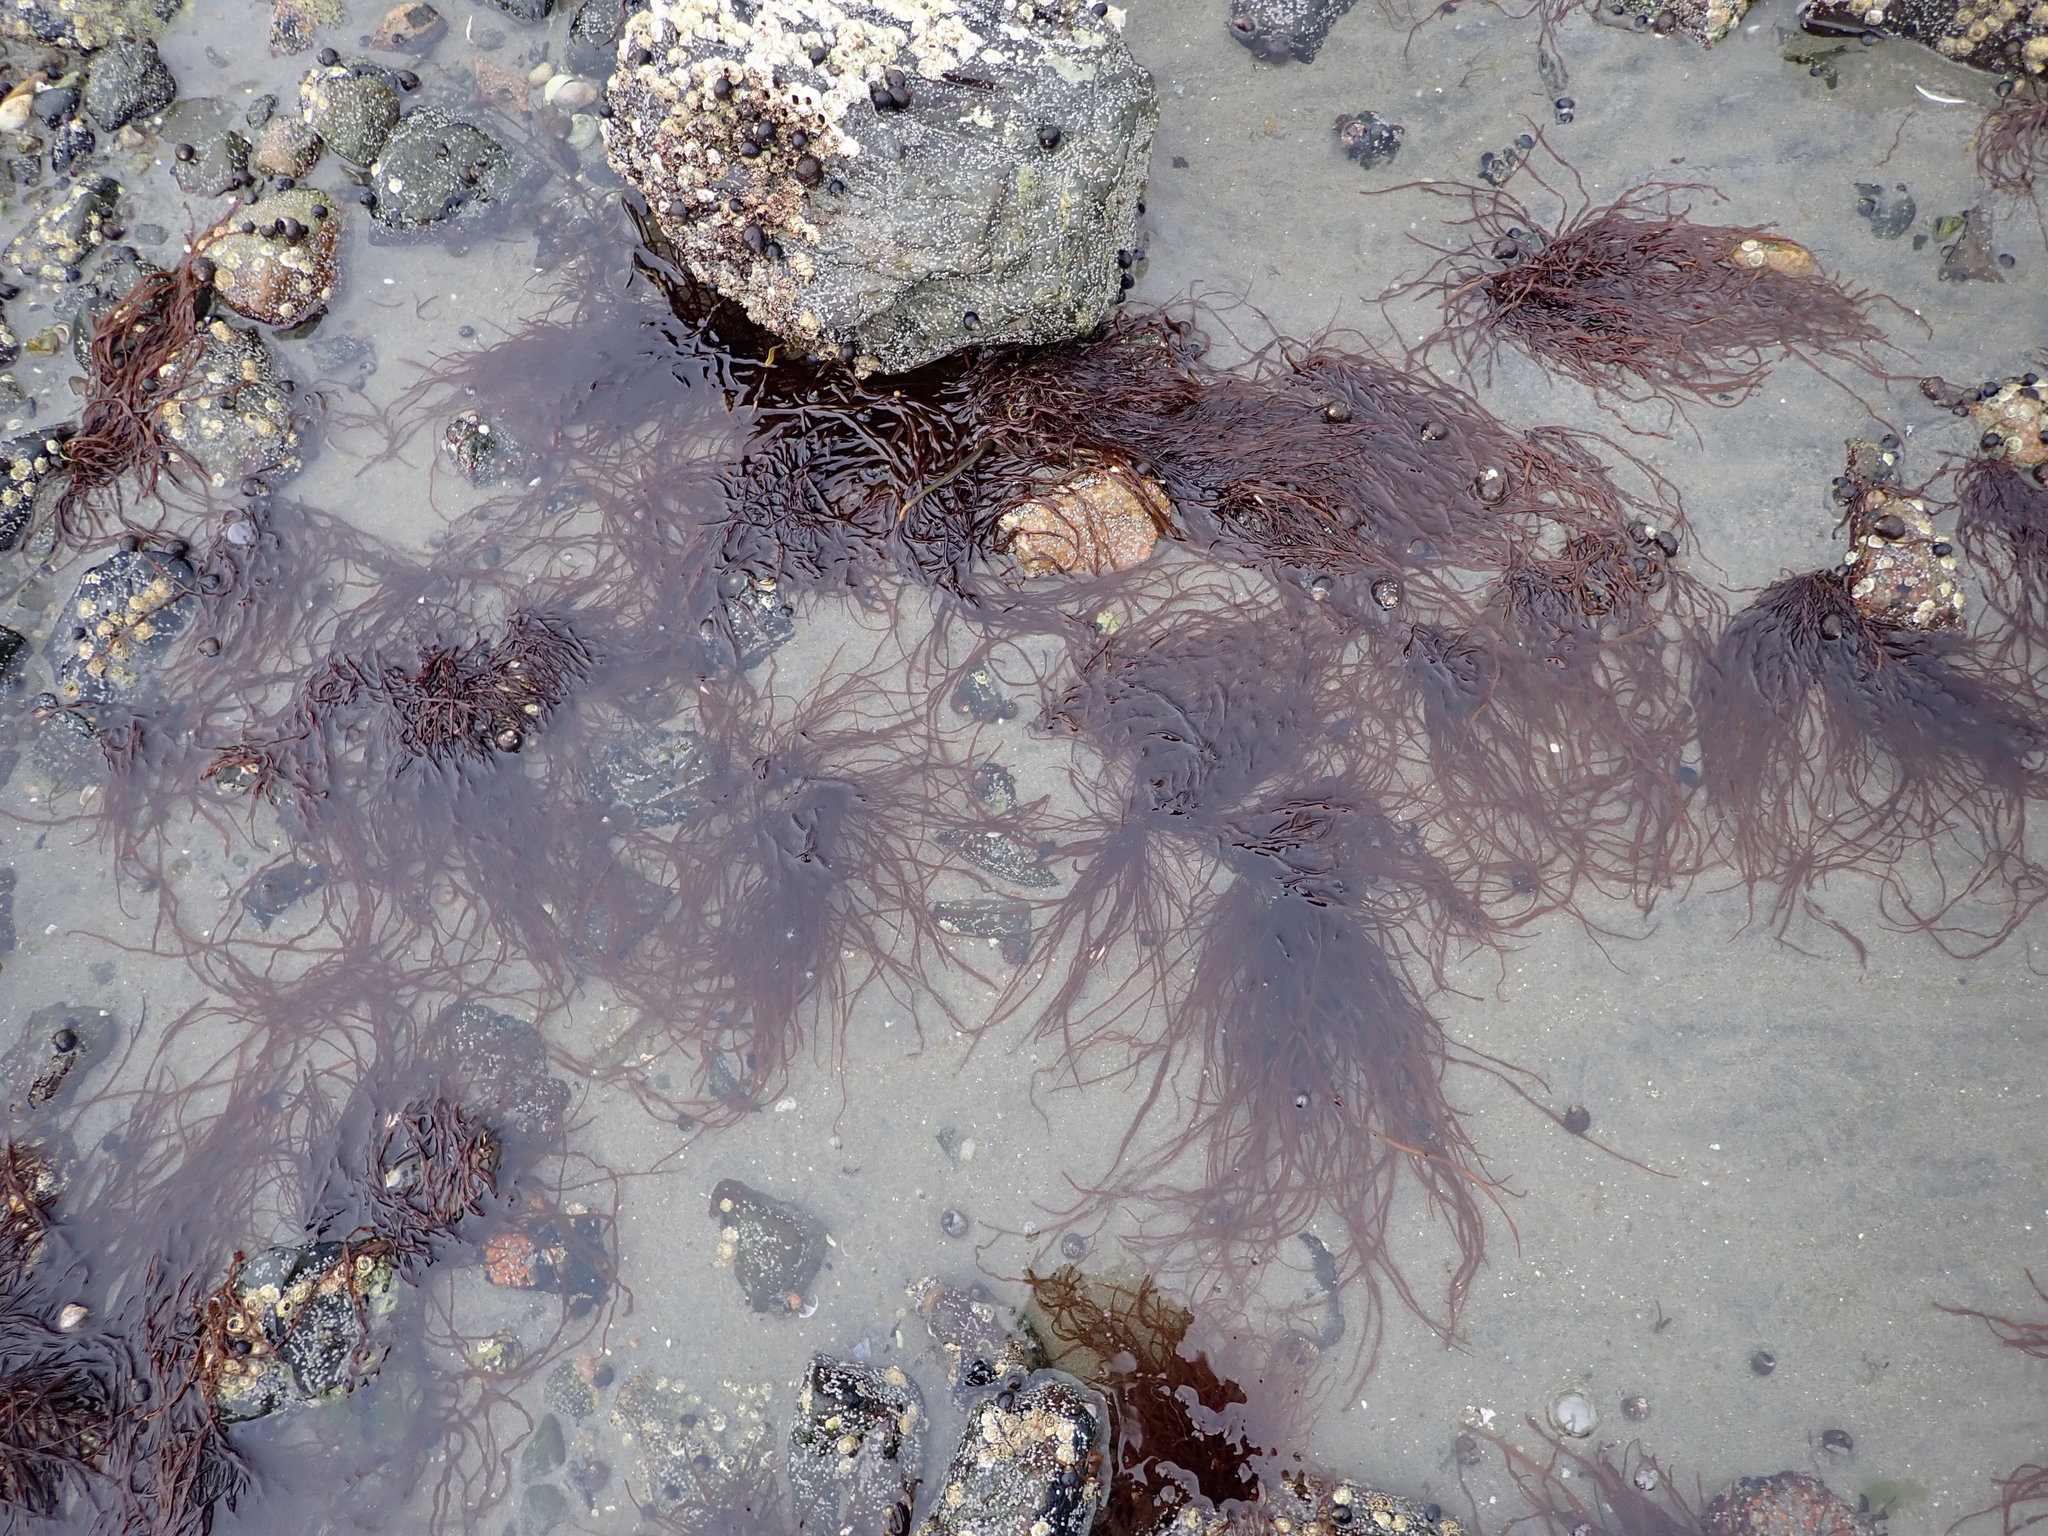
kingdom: Chromista
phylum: Ochrophyta
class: Phaeophyceae
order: Scytosiphonales
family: Scytosiphonaceae
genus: Scytosiphon
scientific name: Scytosiphon lomentaria
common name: Beanweed
